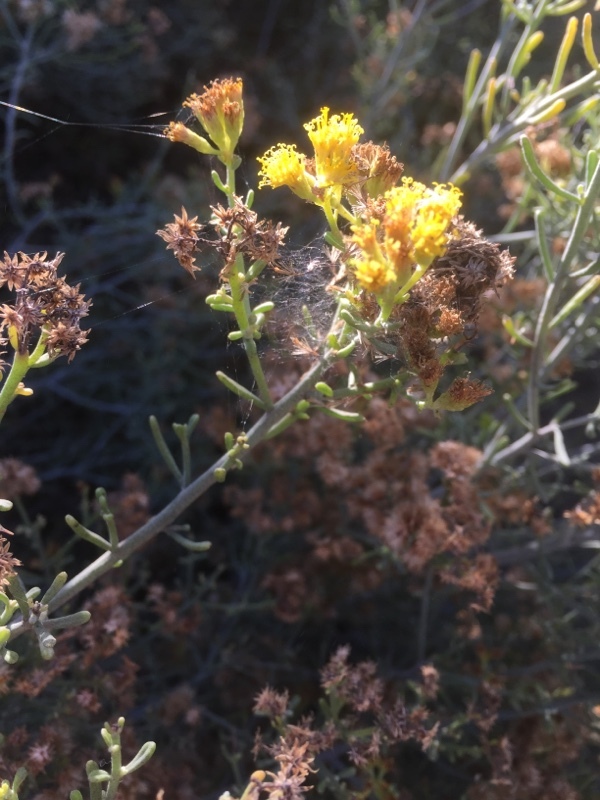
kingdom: Plantae
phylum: Tracheophyta
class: Magnoliopsida
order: Asterales
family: Asteraceae
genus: Schizogyne
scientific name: Schizogyne sericea
